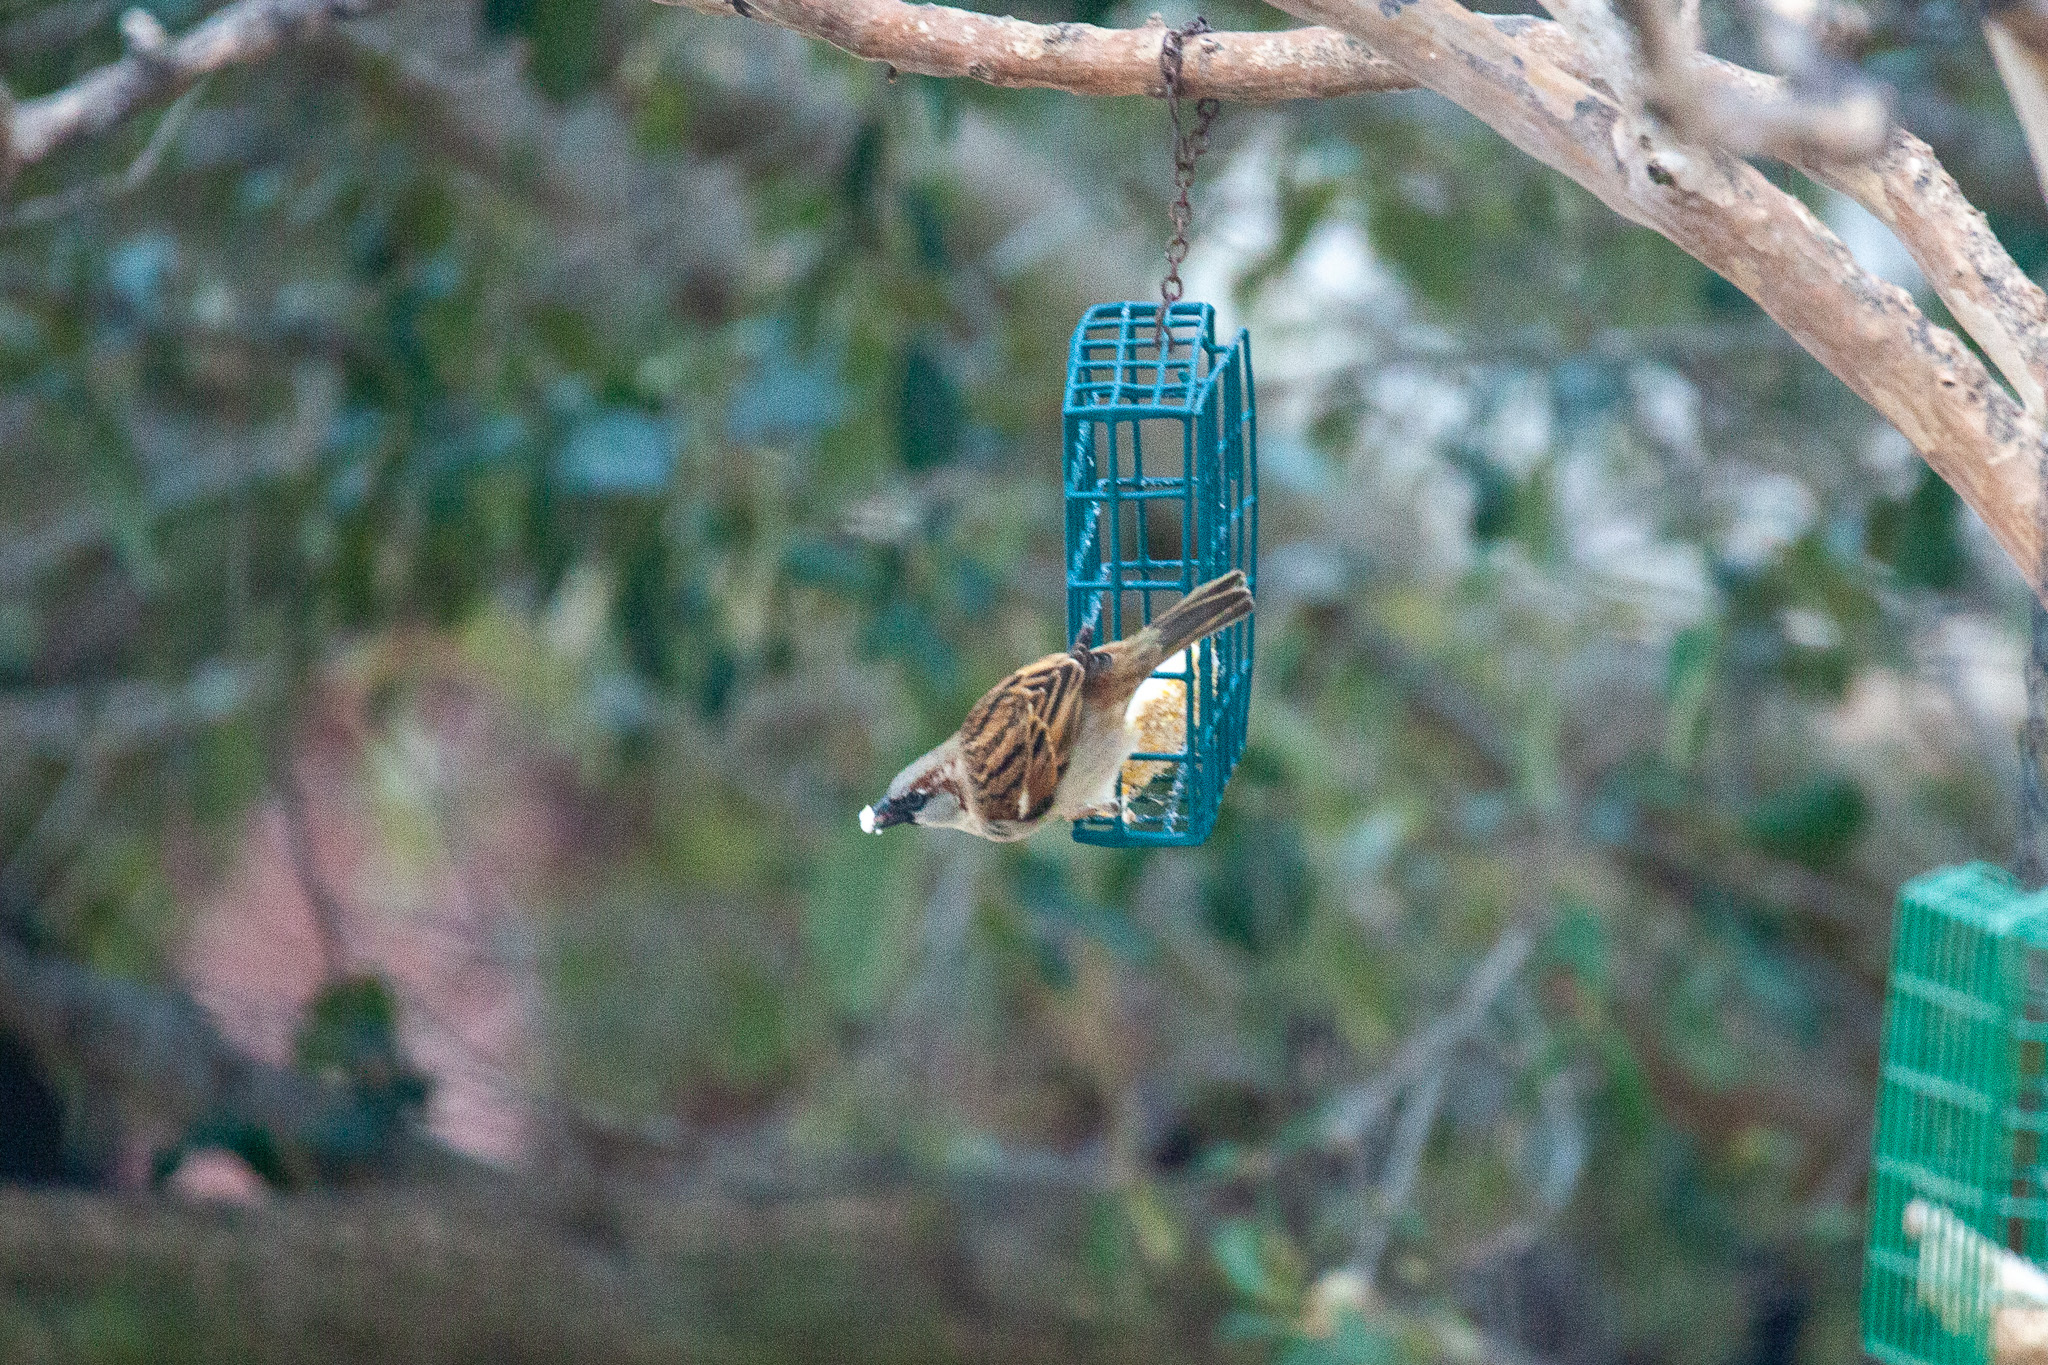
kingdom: Animalia
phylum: Chordata
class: Aves
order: Passeriformes
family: Passeridae
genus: Passer
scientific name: Passer domesticus
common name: House sparrow
